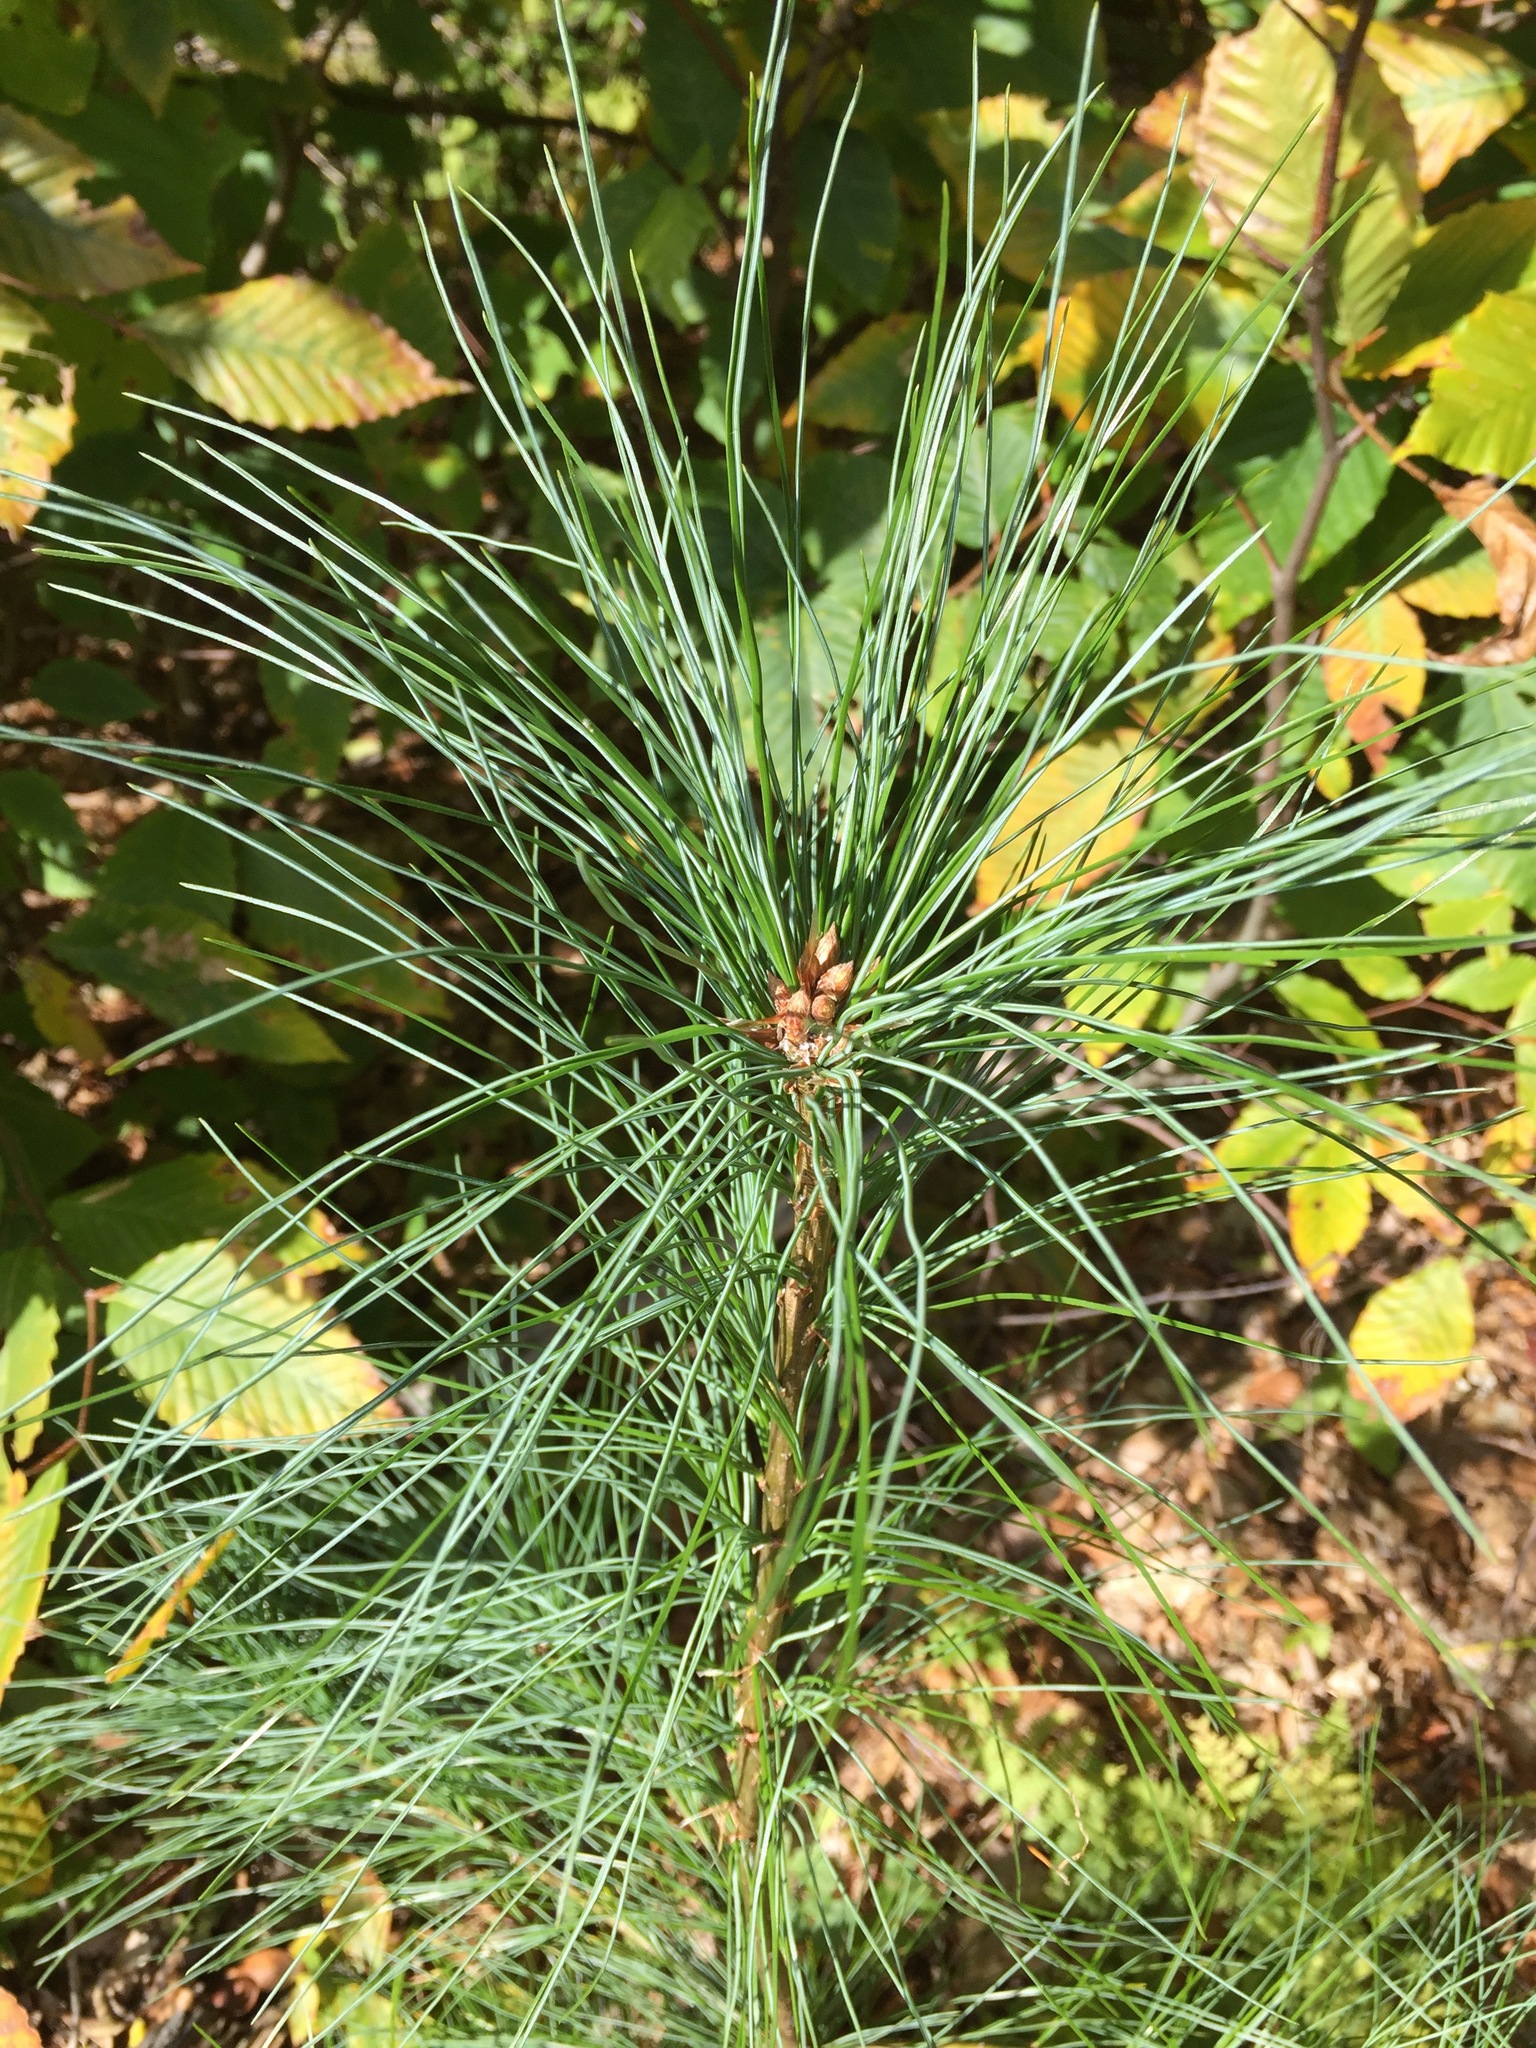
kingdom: Plantae
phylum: Tracheophyta
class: Pinopsida
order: Pinales
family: Pinaceae
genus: Pinus
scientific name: Pinus strobus
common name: Weymouth pine
